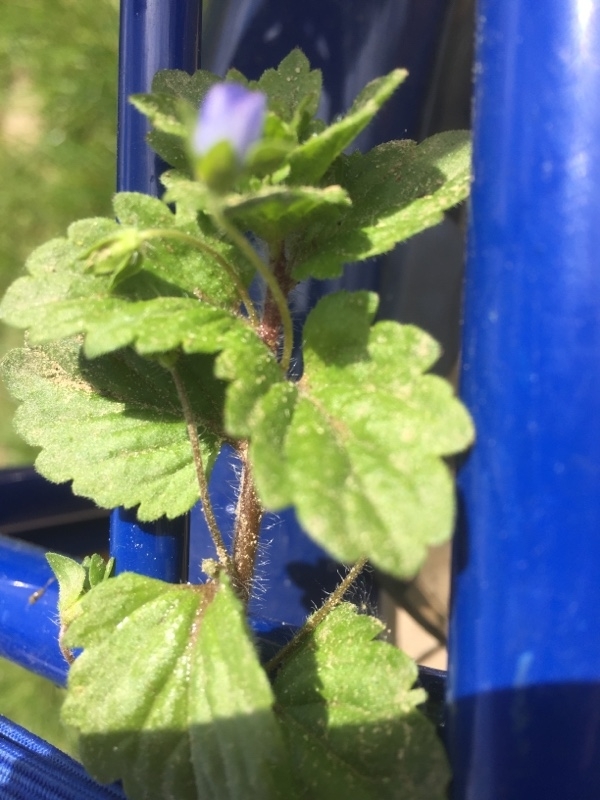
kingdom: Plantae
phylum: Tracheophyta
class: Magnoliopsida
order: Lamiales
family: Plantaginaceae
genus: Veronica
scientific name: Veronica persica
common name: Common field-speedwell
